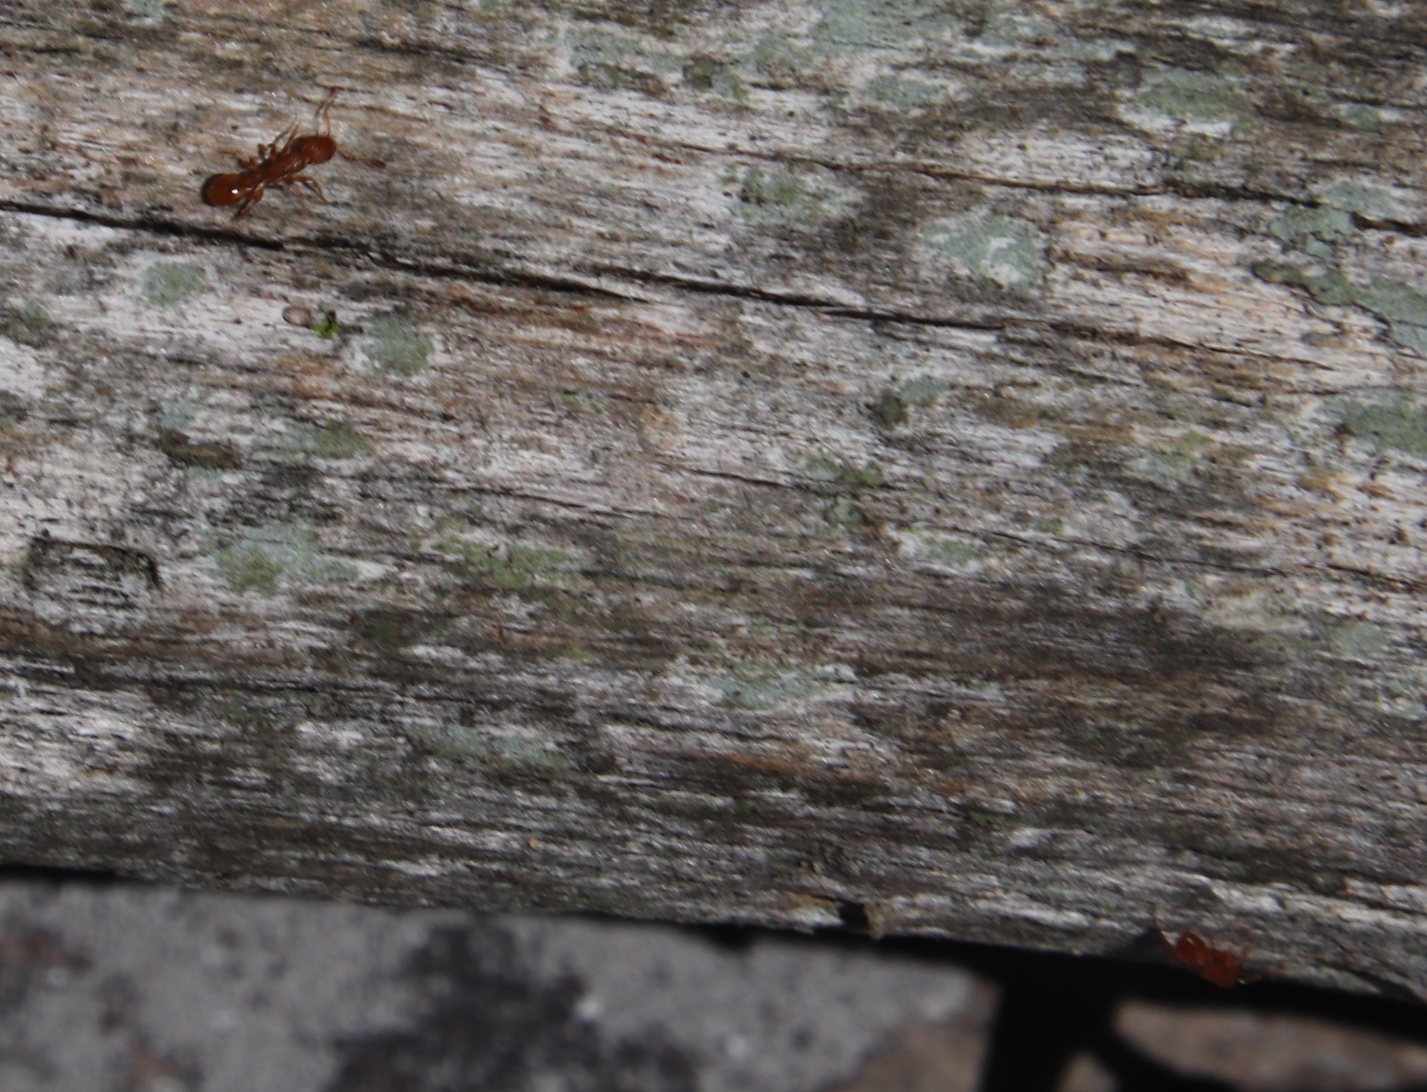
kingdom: Animalia
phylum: Arthropoda
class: Insecta
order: Hymenoptera
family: Formicidae
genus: Leptothorax
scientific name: Leptothorax angulatus
